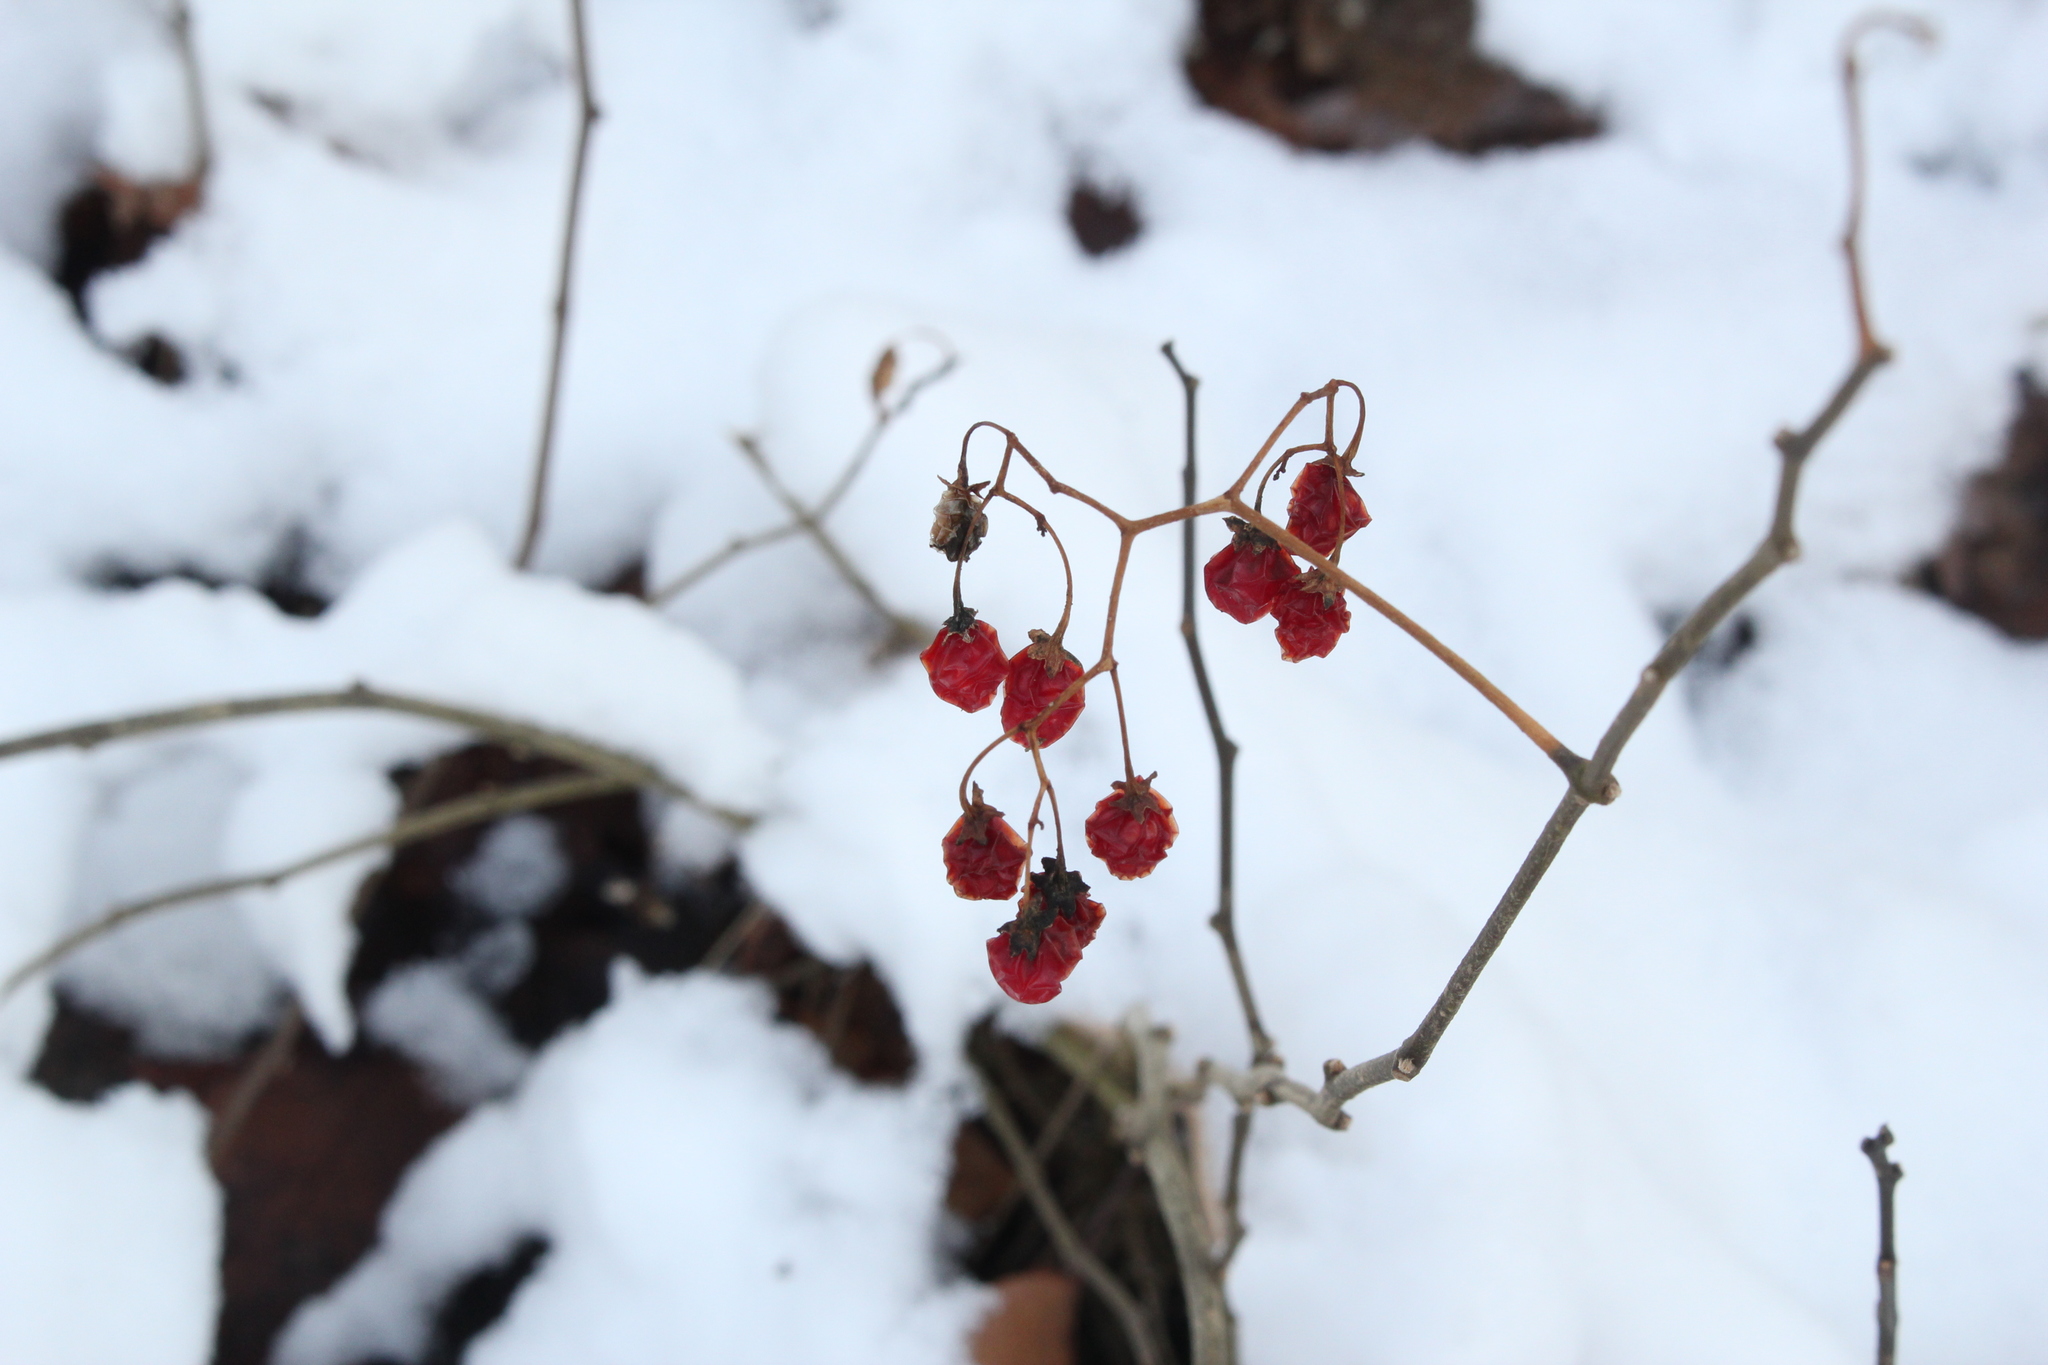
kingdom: Plantae
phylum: Tracheophyta
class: Magnoliopsida
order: Solanales
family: Solanaceae
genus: Solanum
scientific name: Solanum dulcamara
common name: Climbing nightshade
